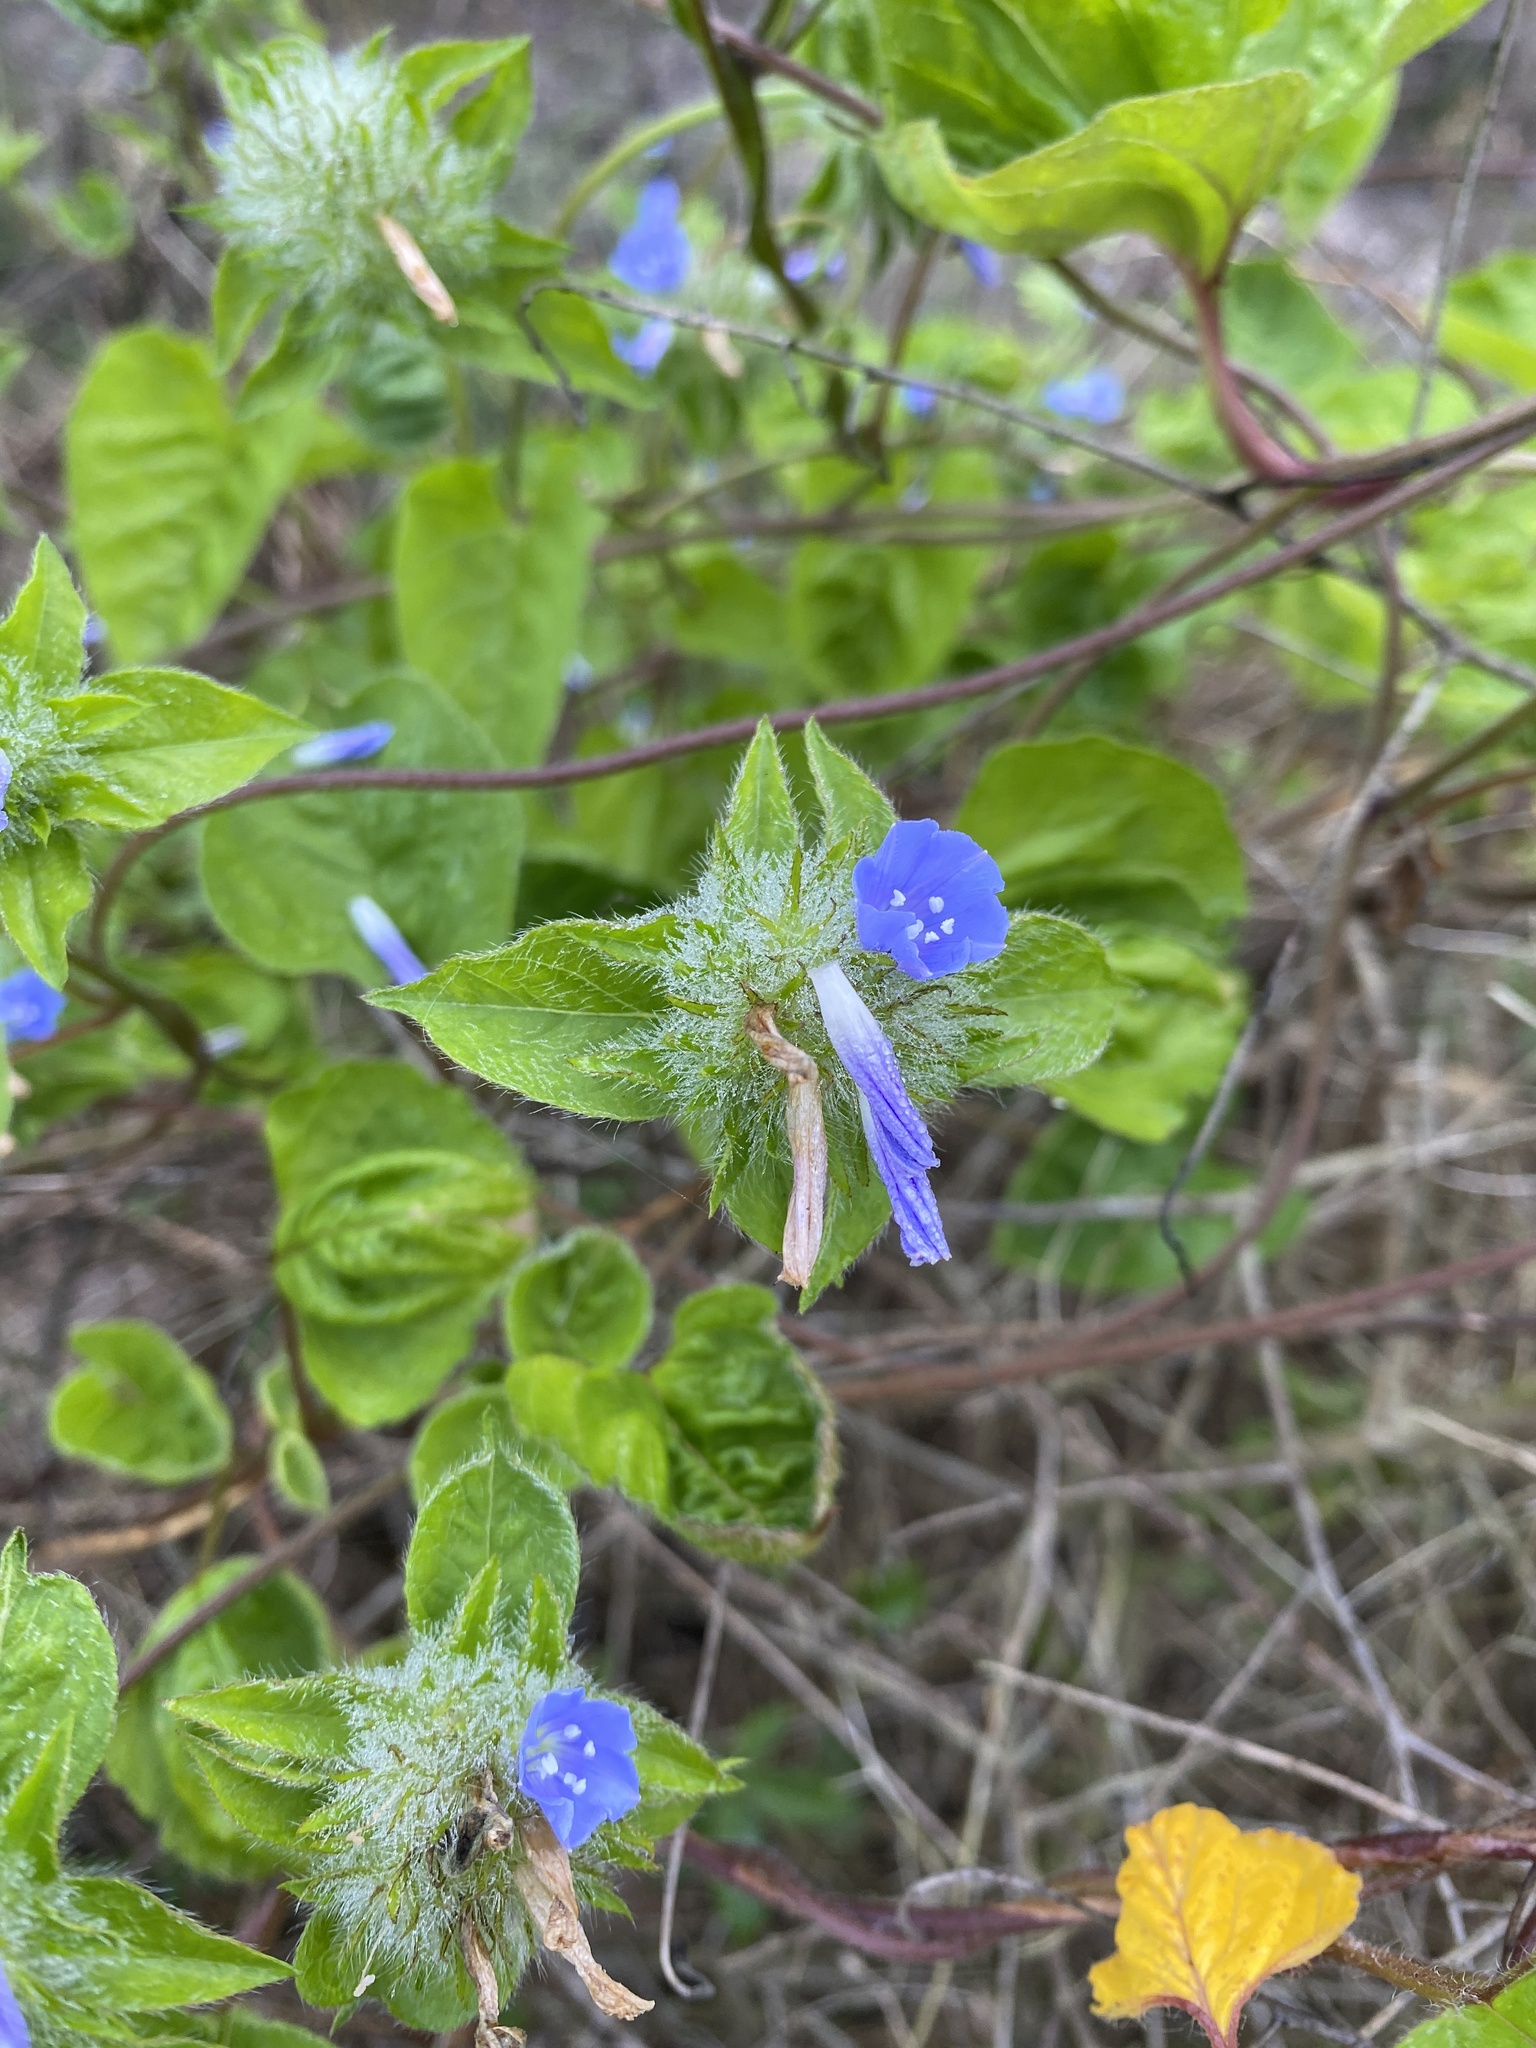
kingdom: Plantae
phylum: Tracheophyta
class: Magnoliopsida
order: Solanales
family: Convolvulaceae
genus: Jacquemontia
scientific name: Jacquemontia tamnifolia
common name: Hairy clustervine
